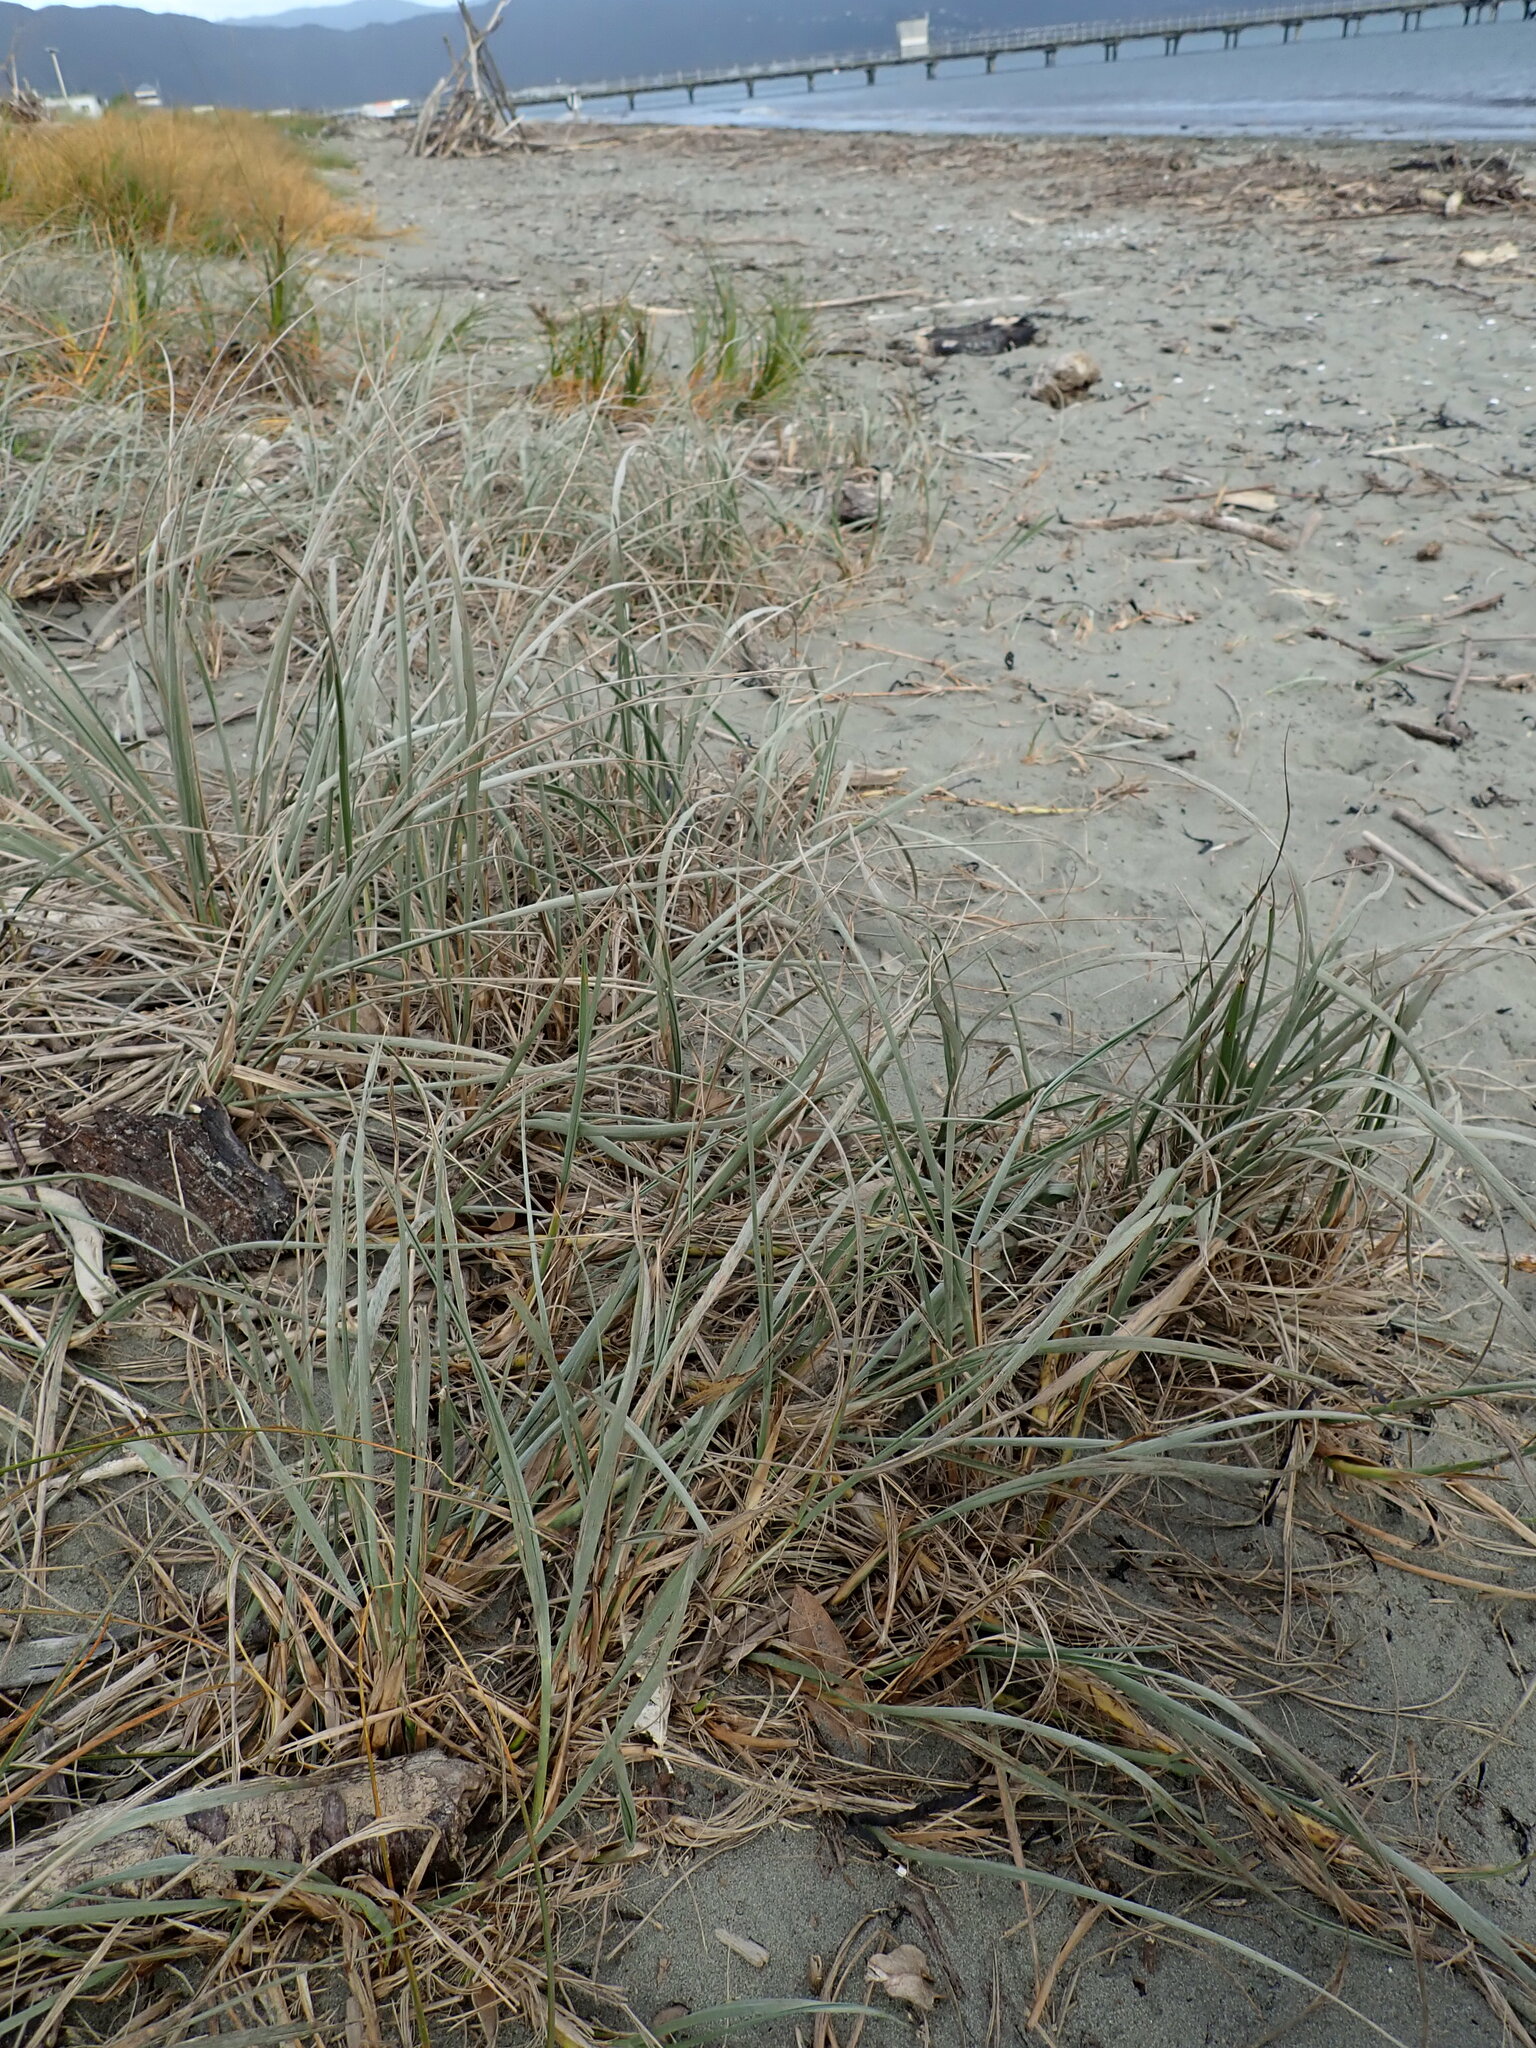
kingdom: Plantae
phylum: Tracheophyta
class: Liliopsida
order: Poales
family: Poaceae
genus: Spinifex
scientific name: Spinifex sericeus
